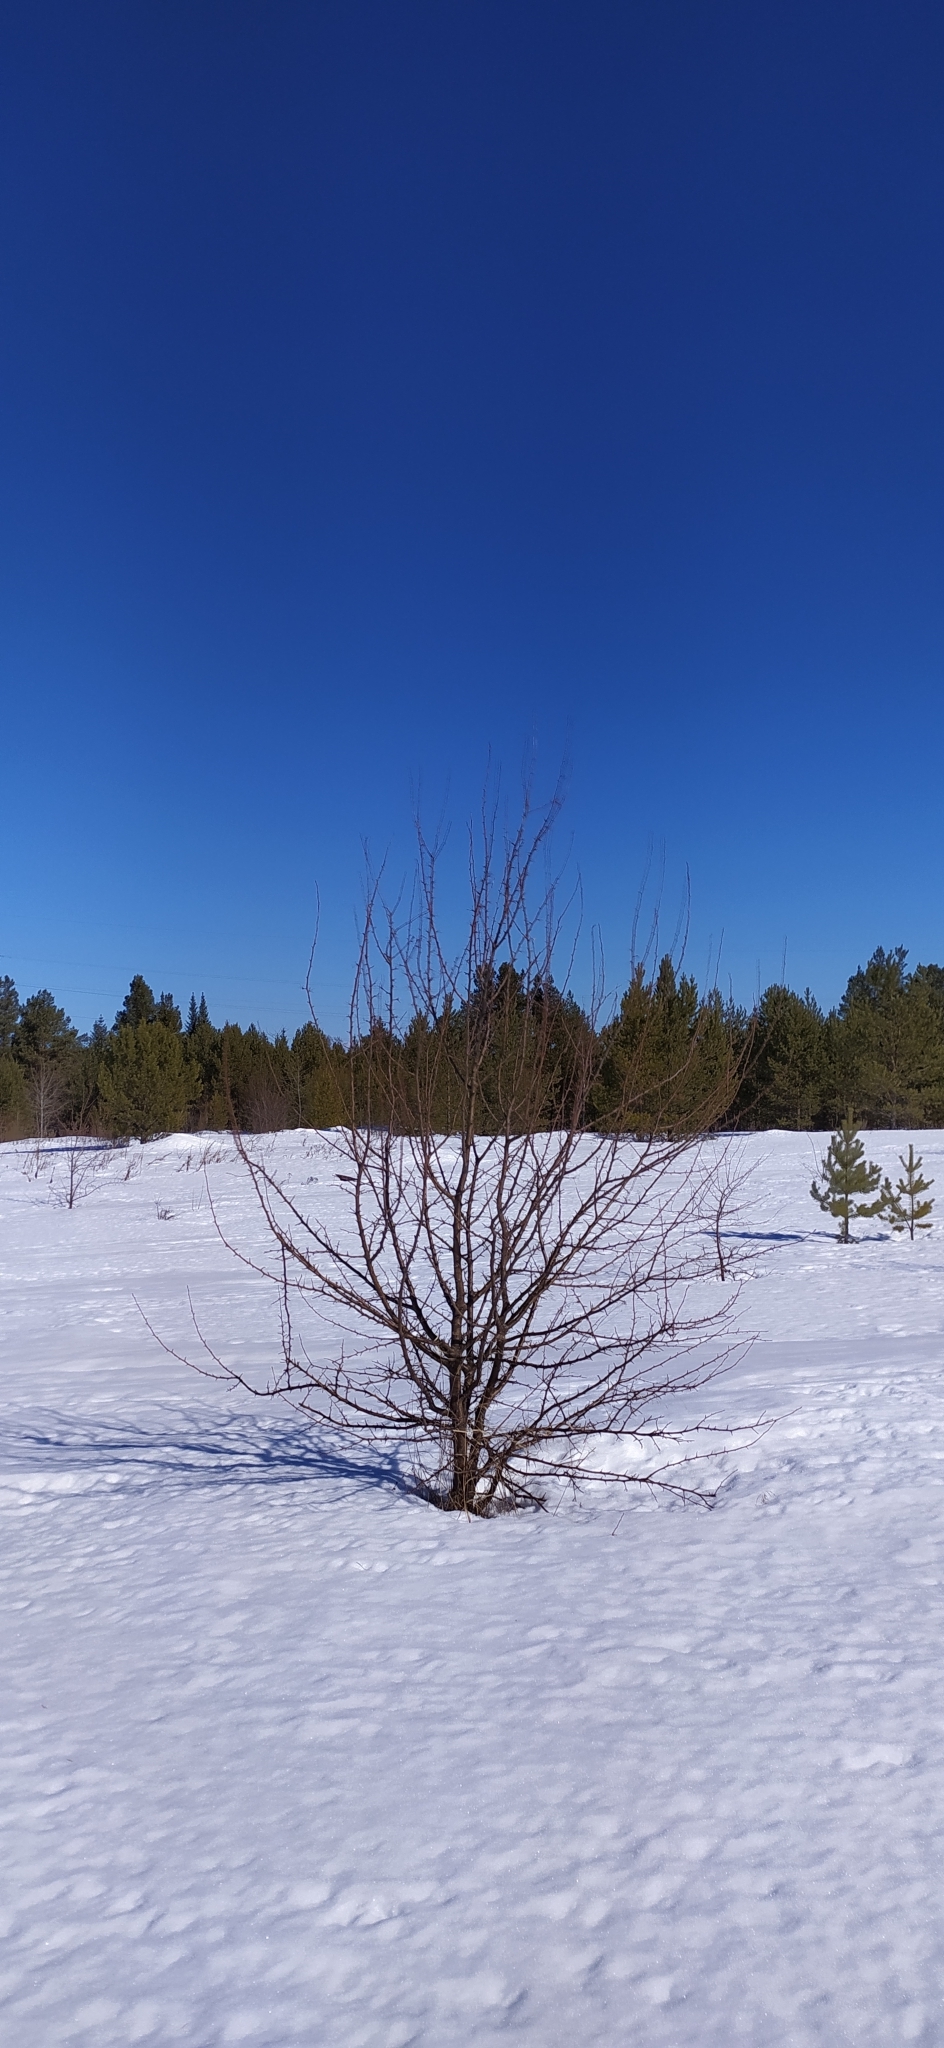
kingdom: Plantae
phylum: Tracheophyta
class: Magnoliopsida
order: Rosales
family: Rosaceae
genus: Malus
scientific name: Malus baccata
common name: Siberian crab
